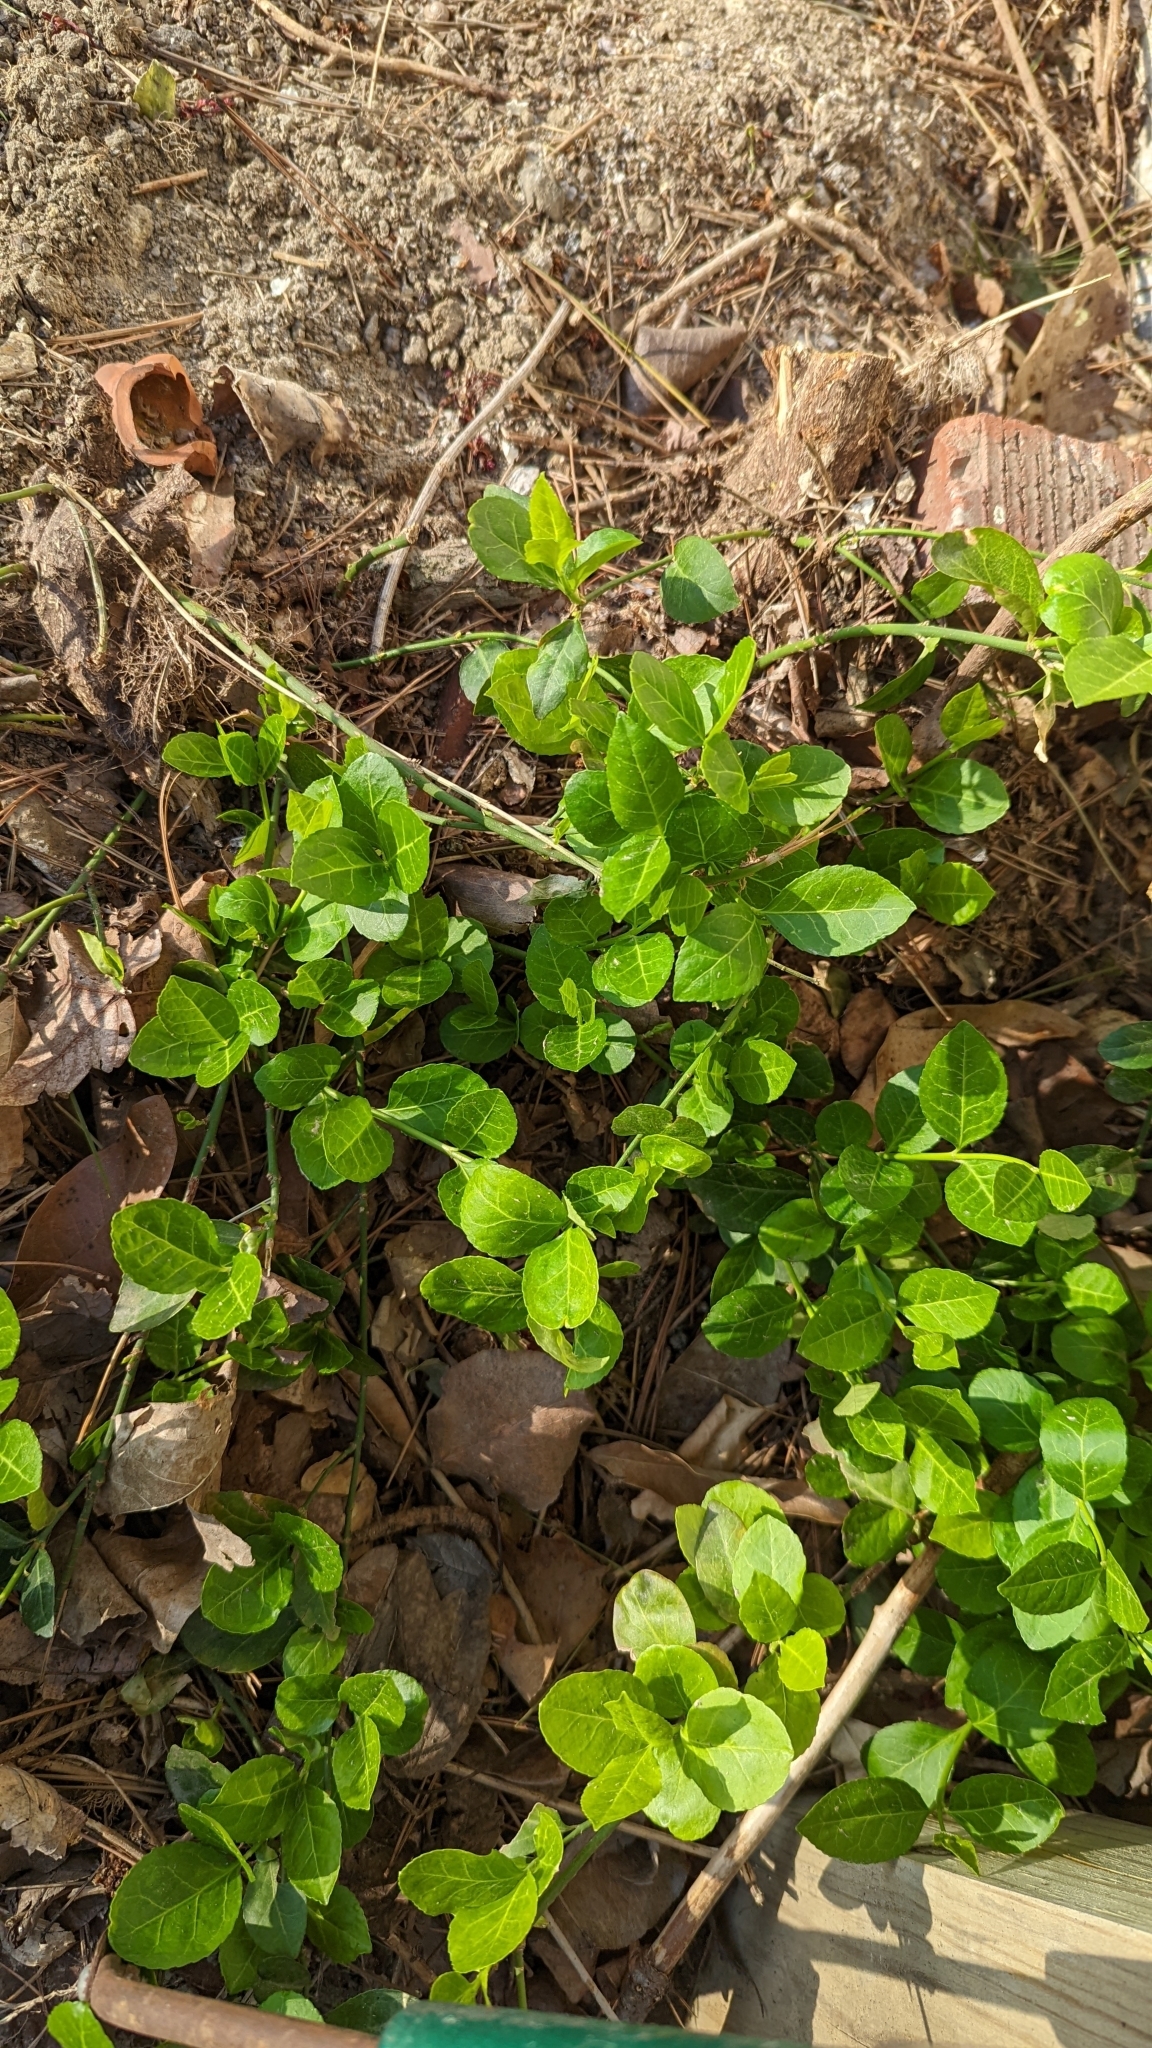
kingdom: Plantae
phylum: Tracheophyta
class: Magnoliopsida
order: Celastrales
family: Celastraceae
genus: Euonymus
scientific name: Euonymus fortunei
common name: Climbing euonymus
